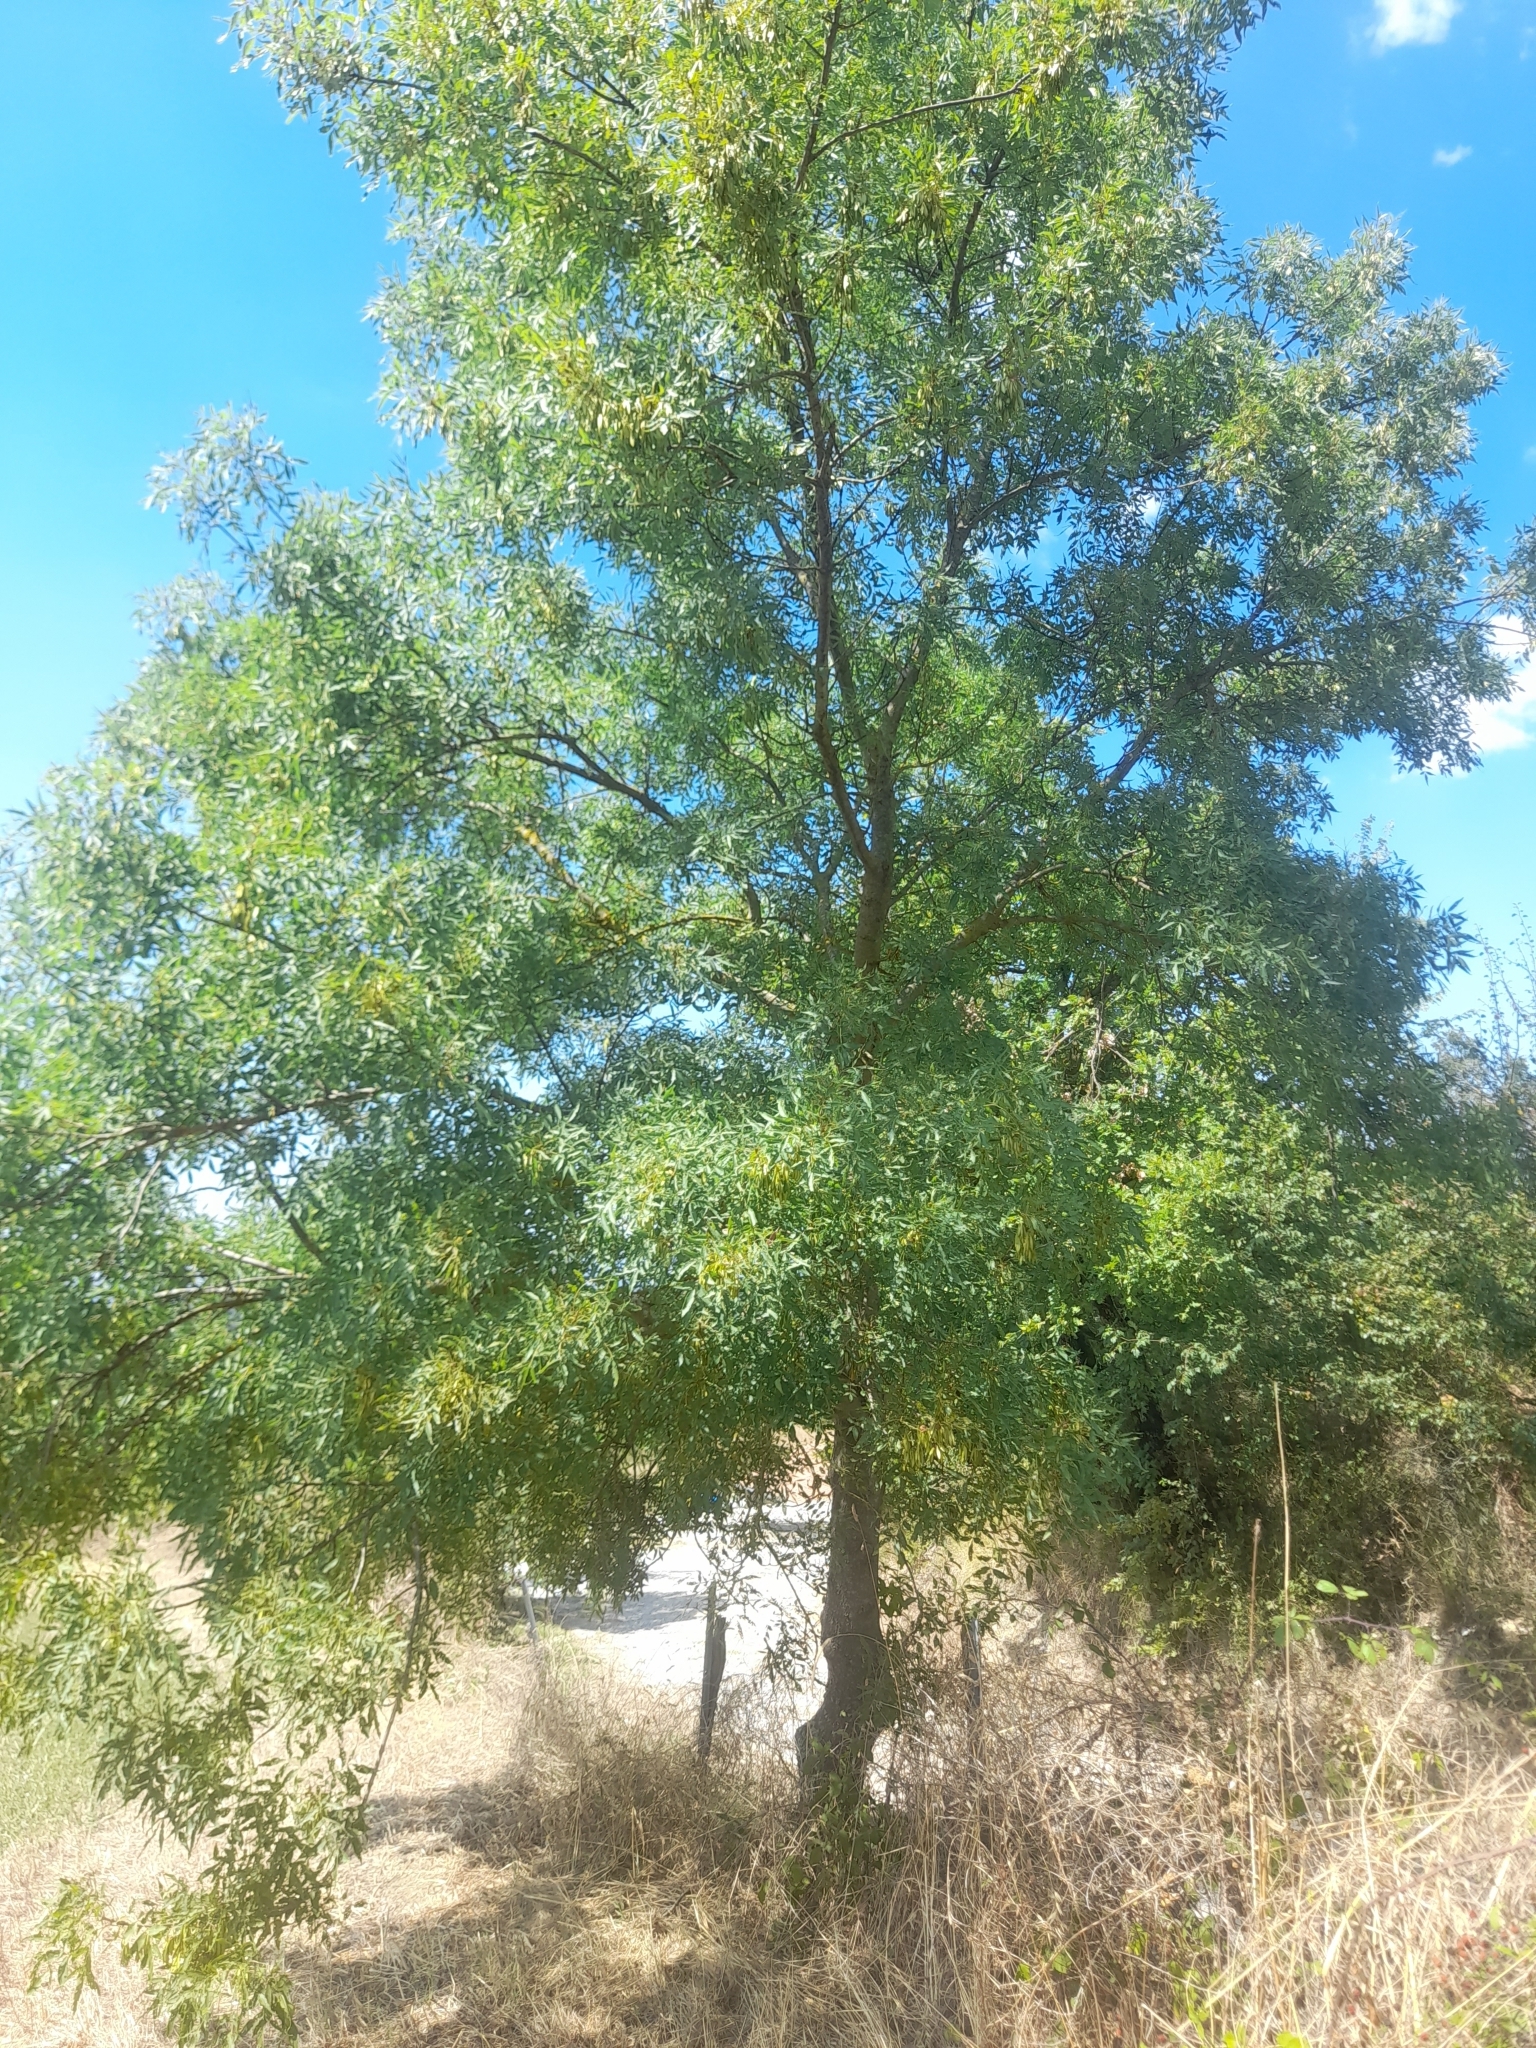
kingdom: Plantae
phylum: Tracheophyta
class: Magnoliopsida
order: Lamiales
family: Oleaceae
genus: Fraxinus
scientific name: Fraxinus angustifolia
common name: Narrow-leafed ash
